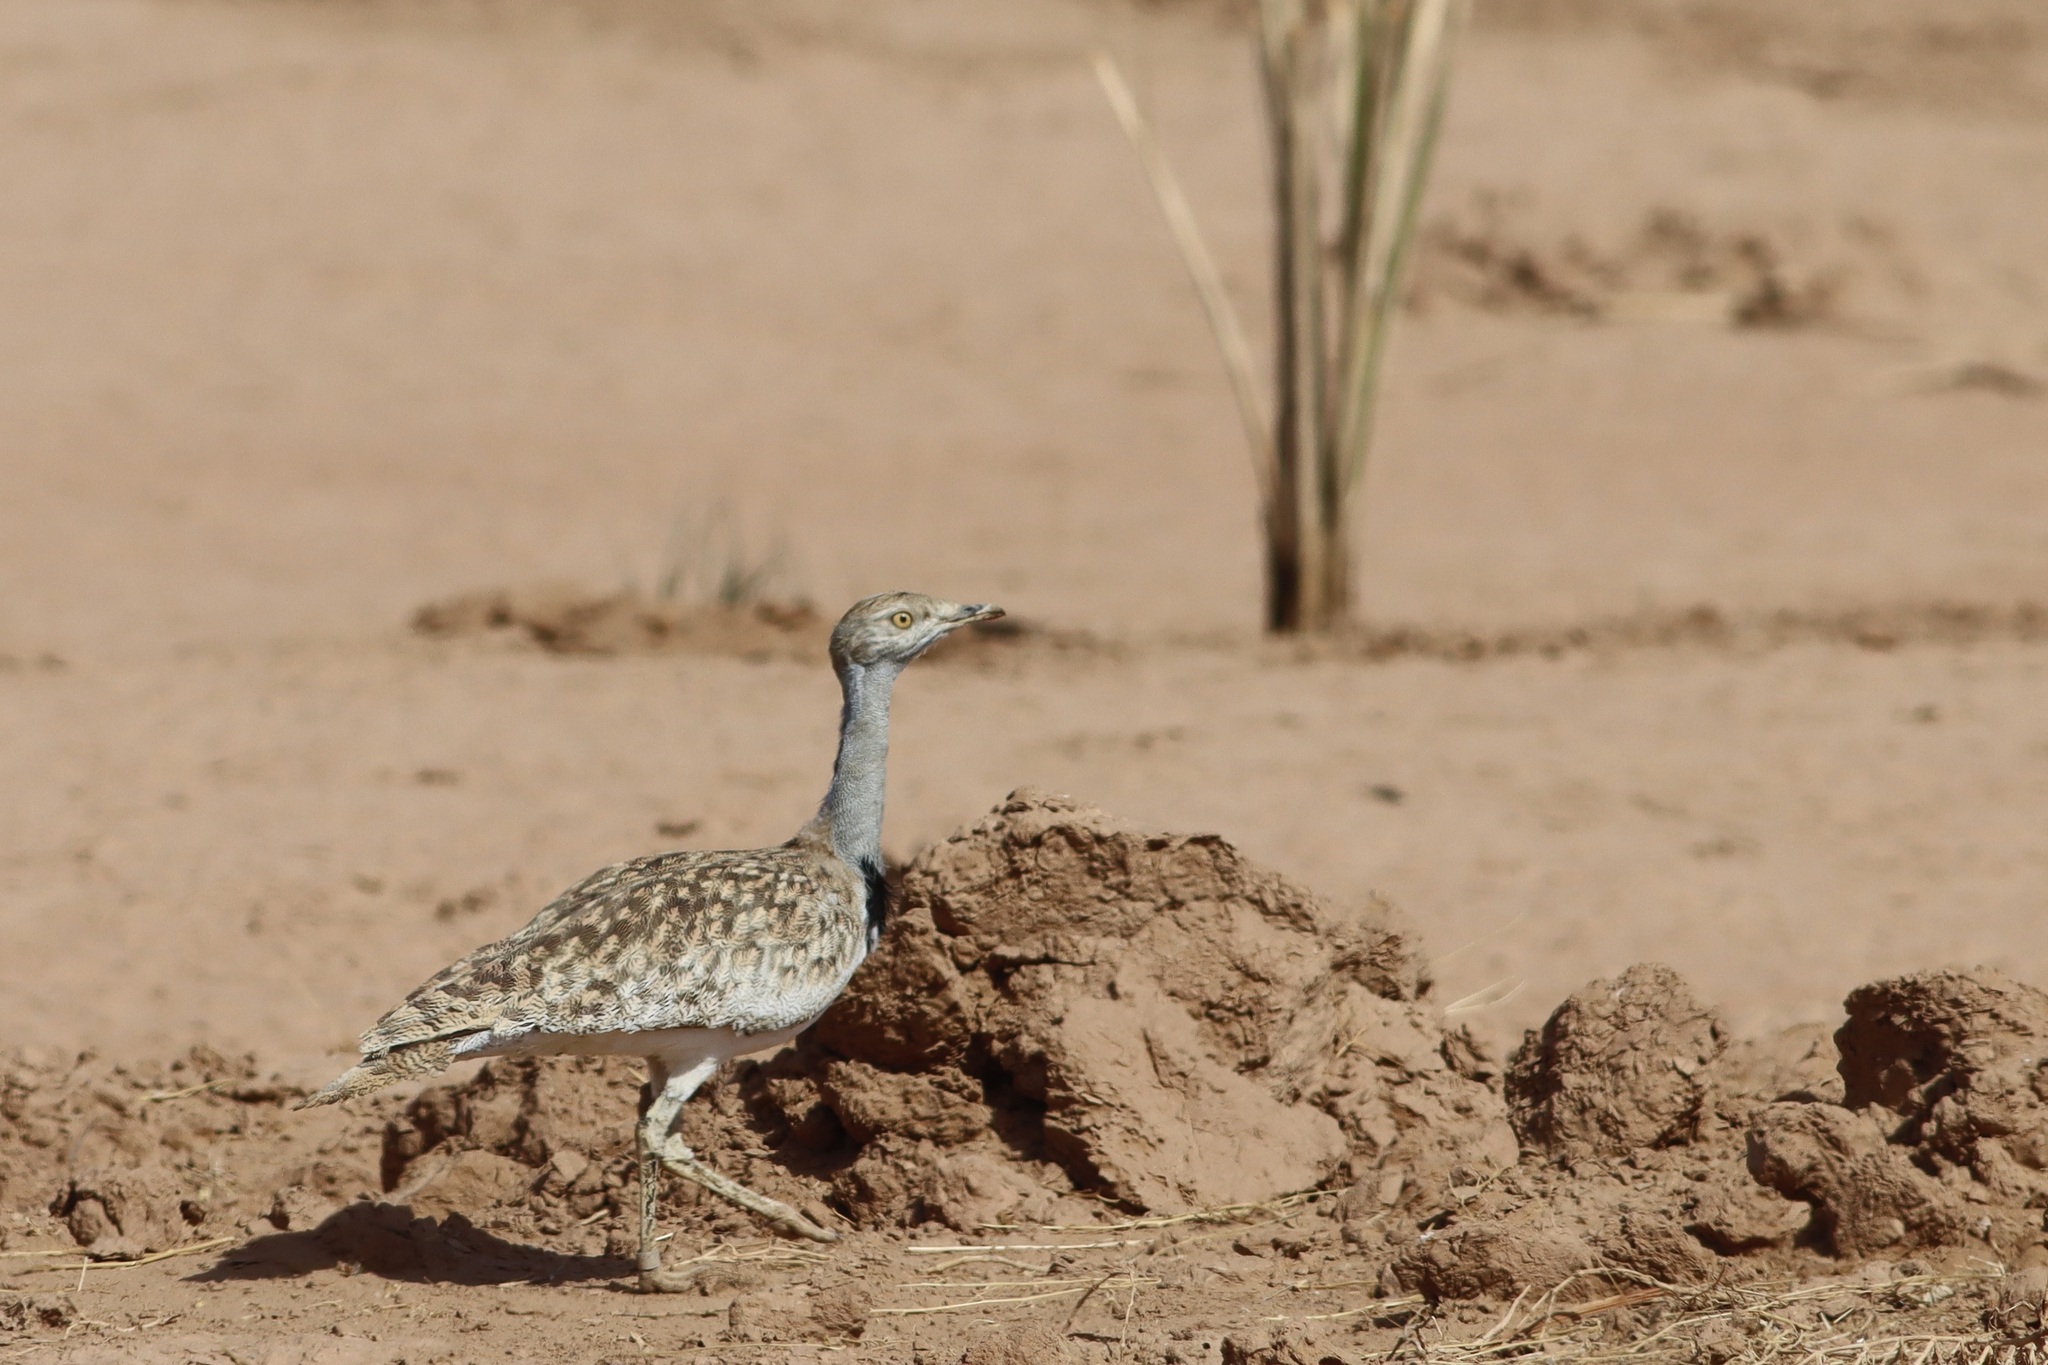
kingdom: Animalia
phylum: Chordata
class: Aves
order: Otidiformes
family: Otididae
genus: Chlamydotis
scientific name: Chlamydotis undulata
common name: Houbara bustard
